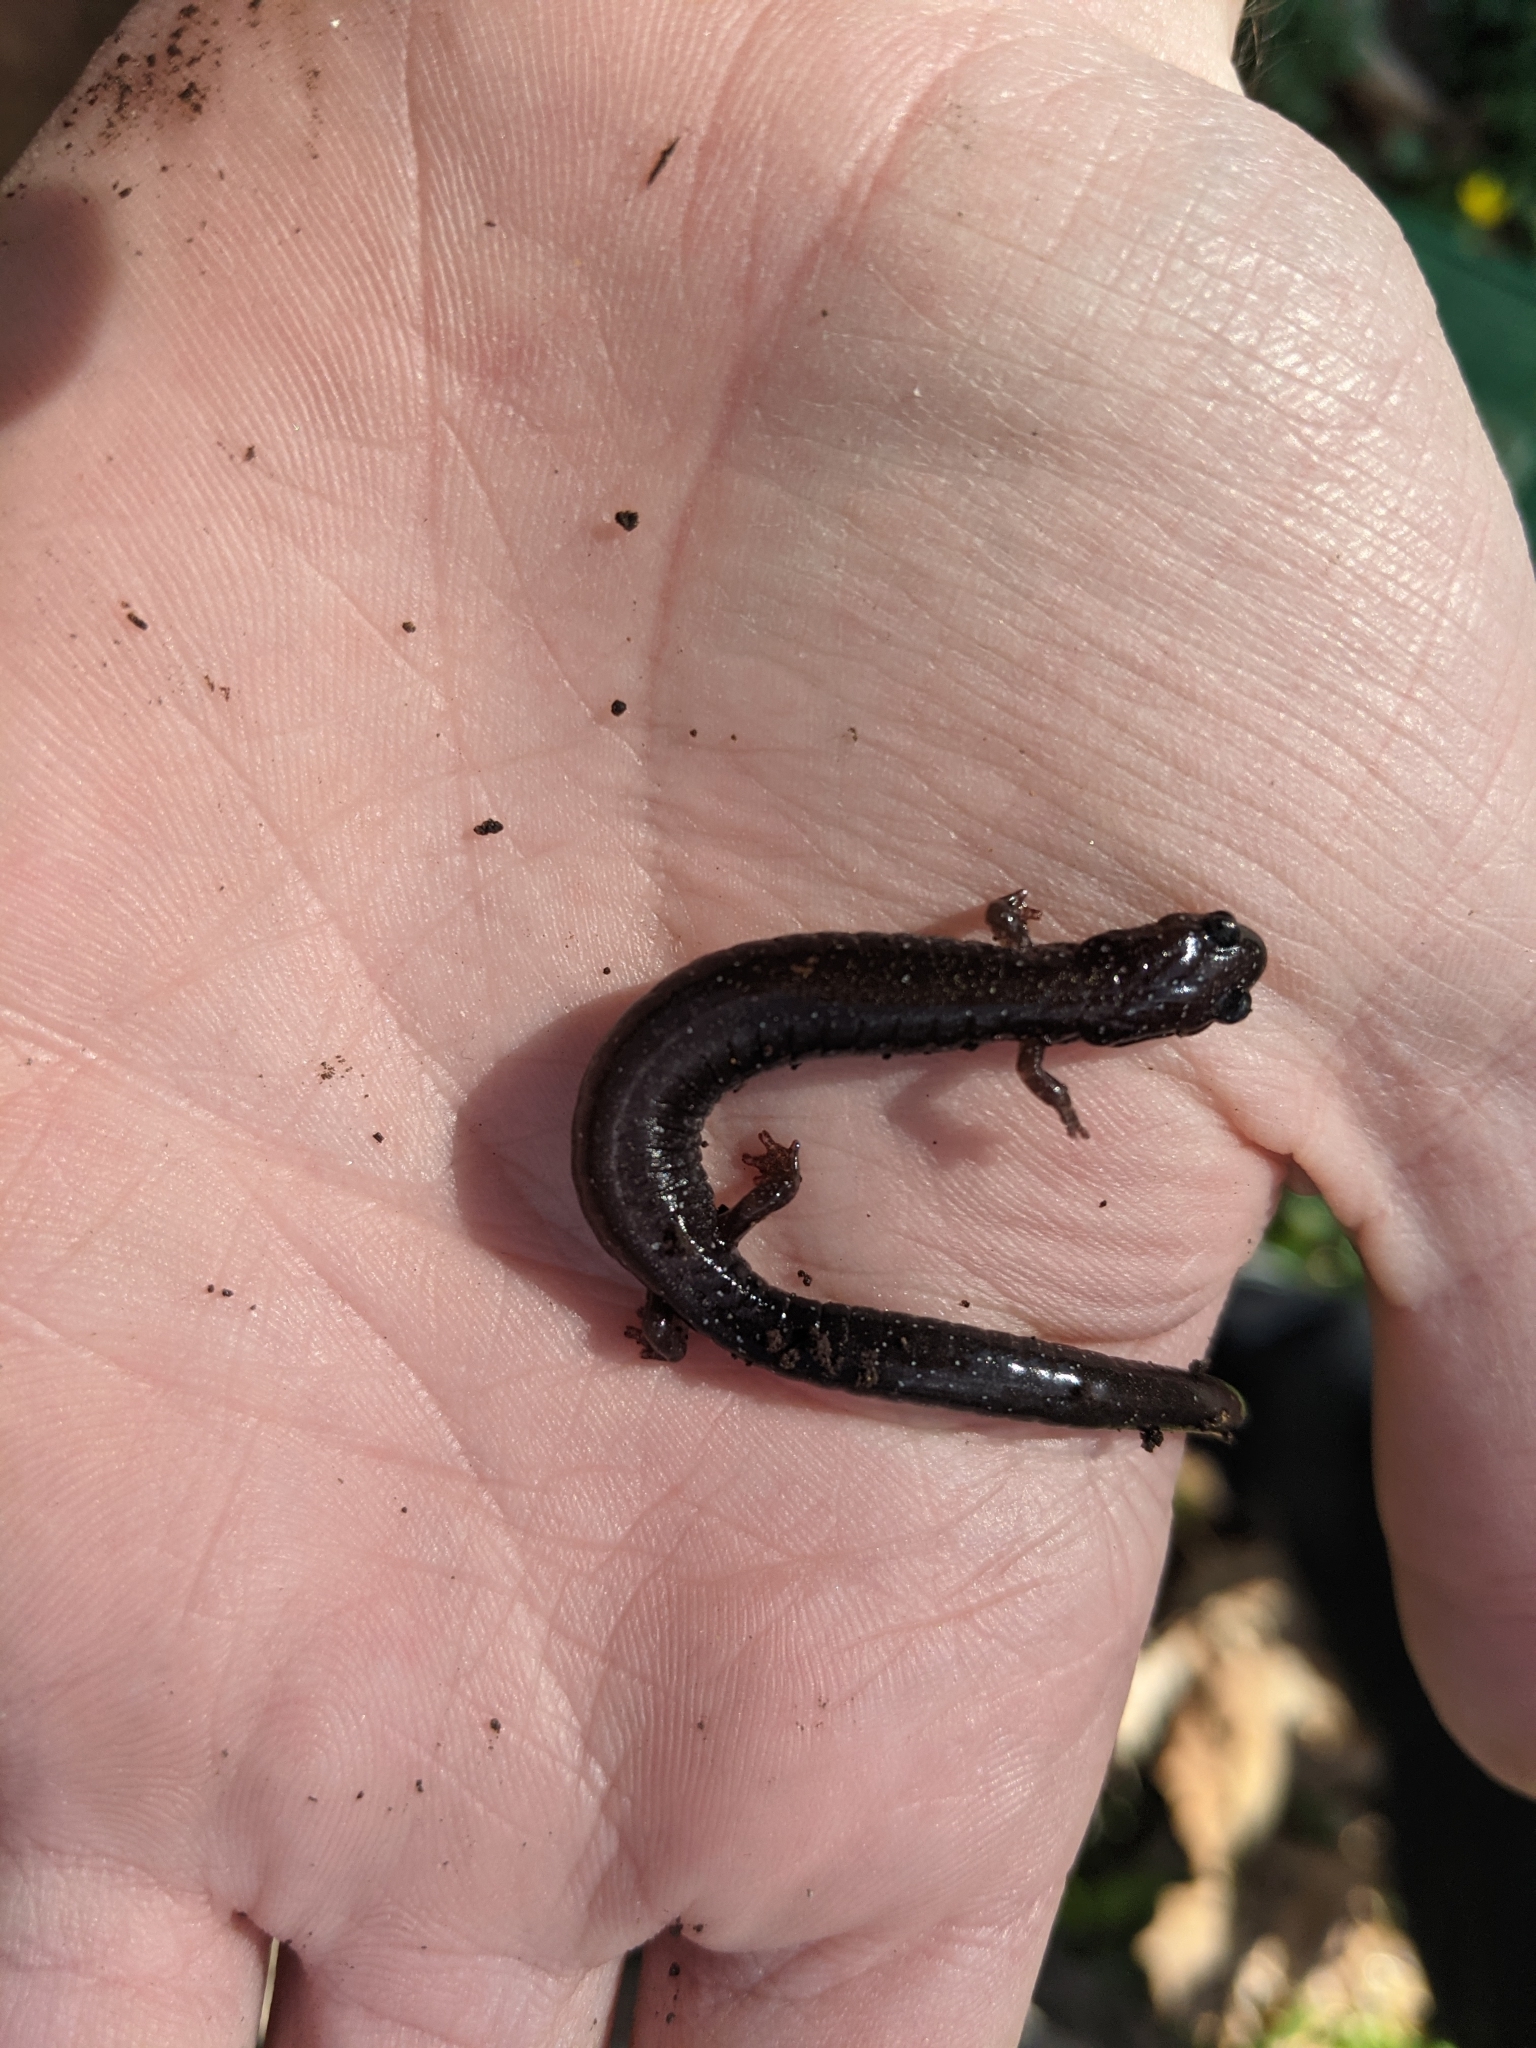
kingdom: Animalia
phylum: Chordata
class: Amphibia
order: Caudata
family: Plethodontidae
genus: Plethodon
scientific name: Plethodon cinereus
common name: Redback salamander
